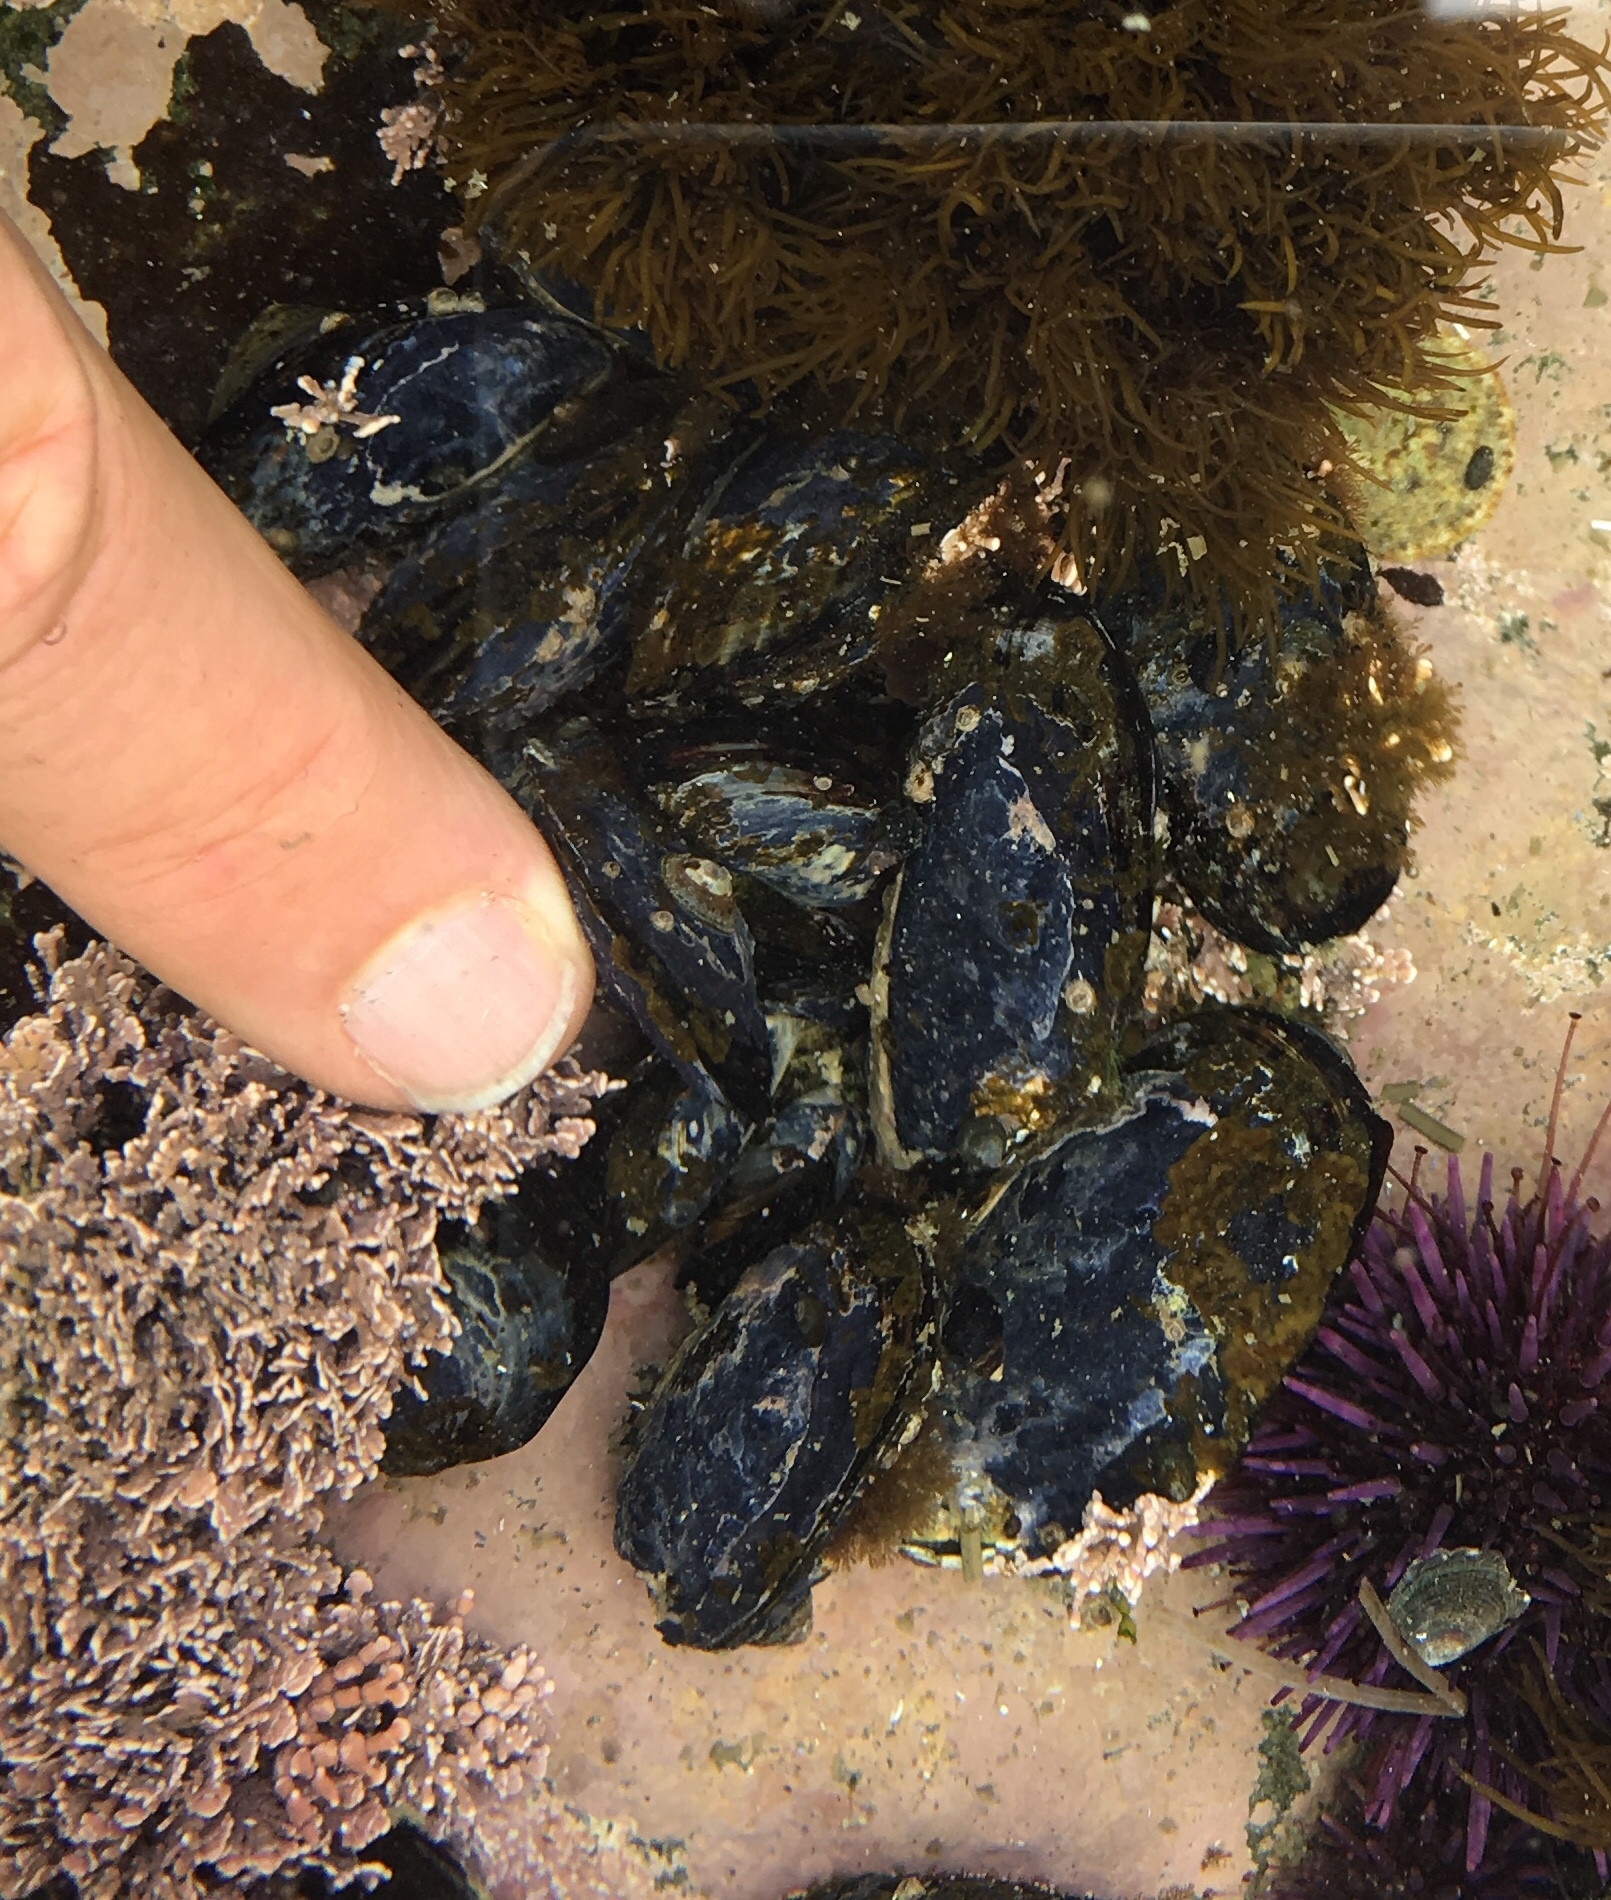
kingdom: Animalia
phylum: Mollusca
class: Bivalvia
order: Mytilida
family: Mytilidae
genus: Mytilus
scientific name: Mytilus californianus
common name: California mussel
